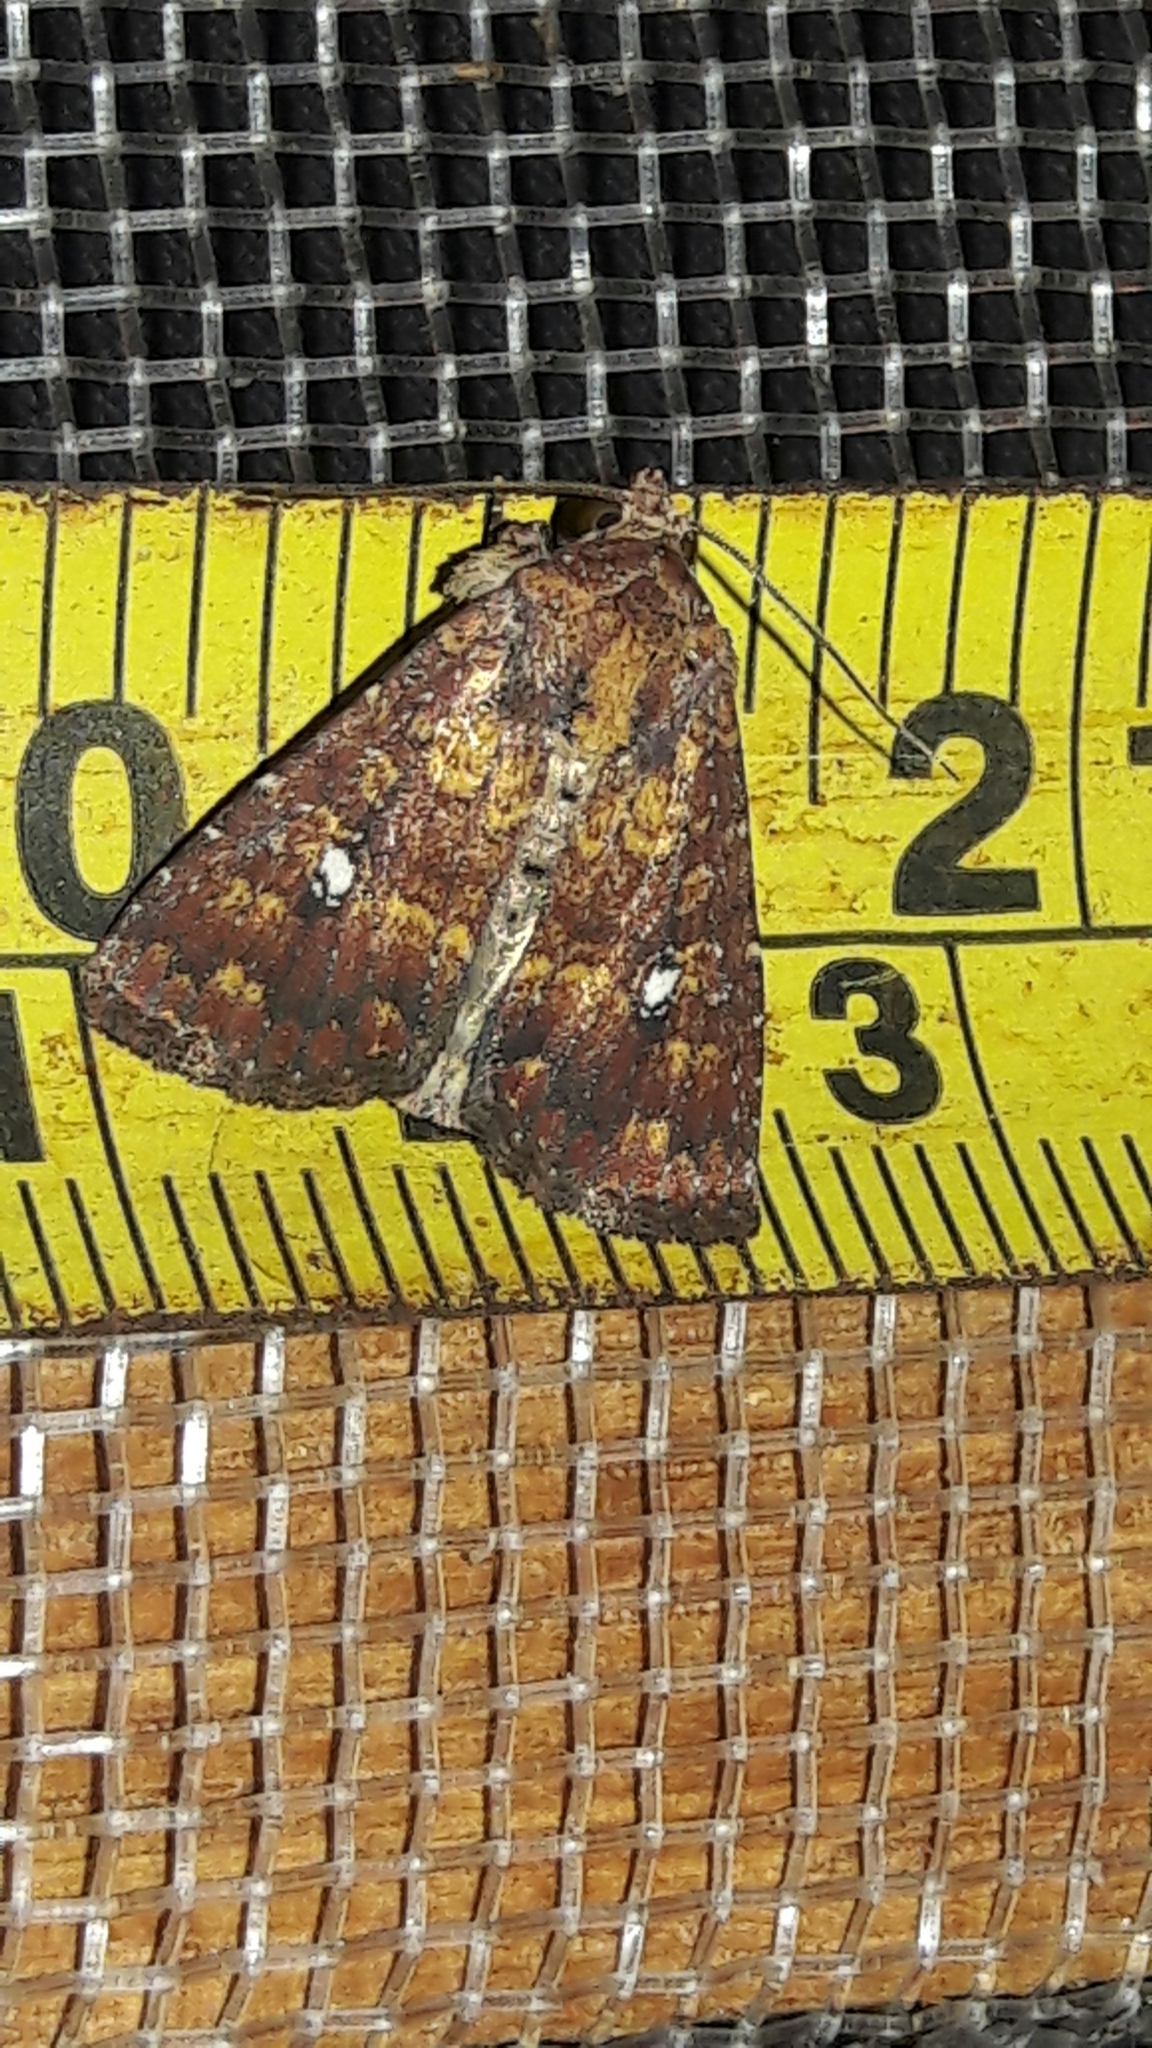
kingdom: Animalia
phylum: Arthropoda
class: Insecta
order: Lepidoptera
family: Noctuidae
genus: Condica
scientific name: Condica mobilis
